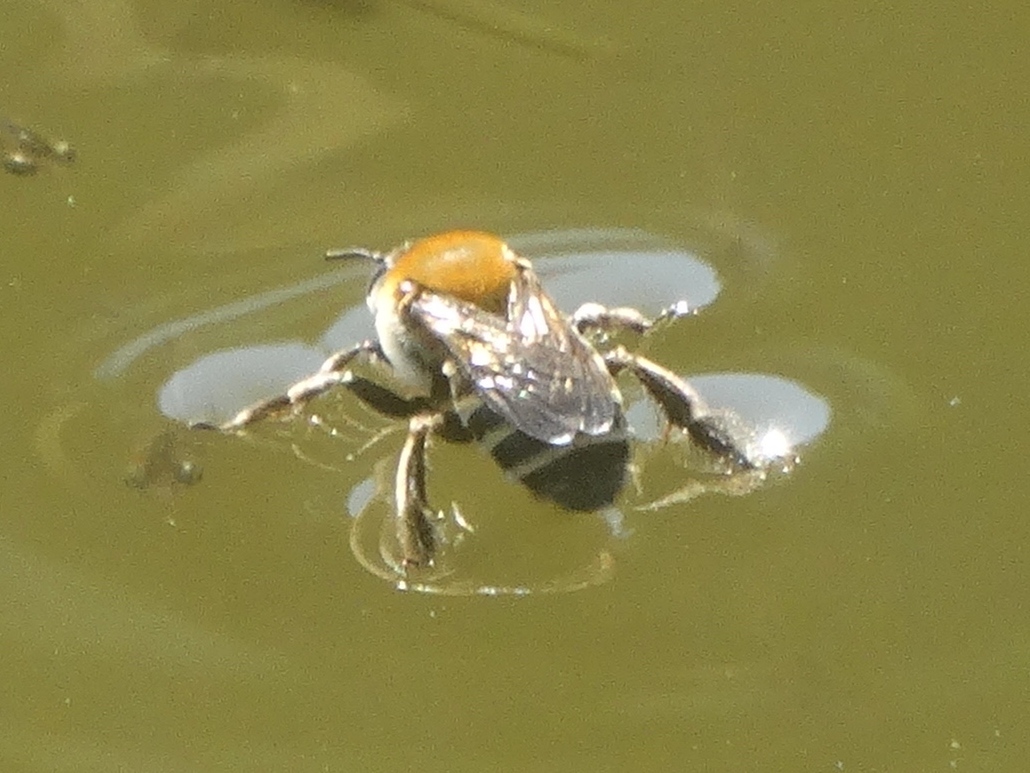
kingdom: Animalia
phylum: Arthropoda
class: Insecta
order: Hymenoptera
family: Apidae
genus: Ptilothrix
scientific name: Ptilothrix
